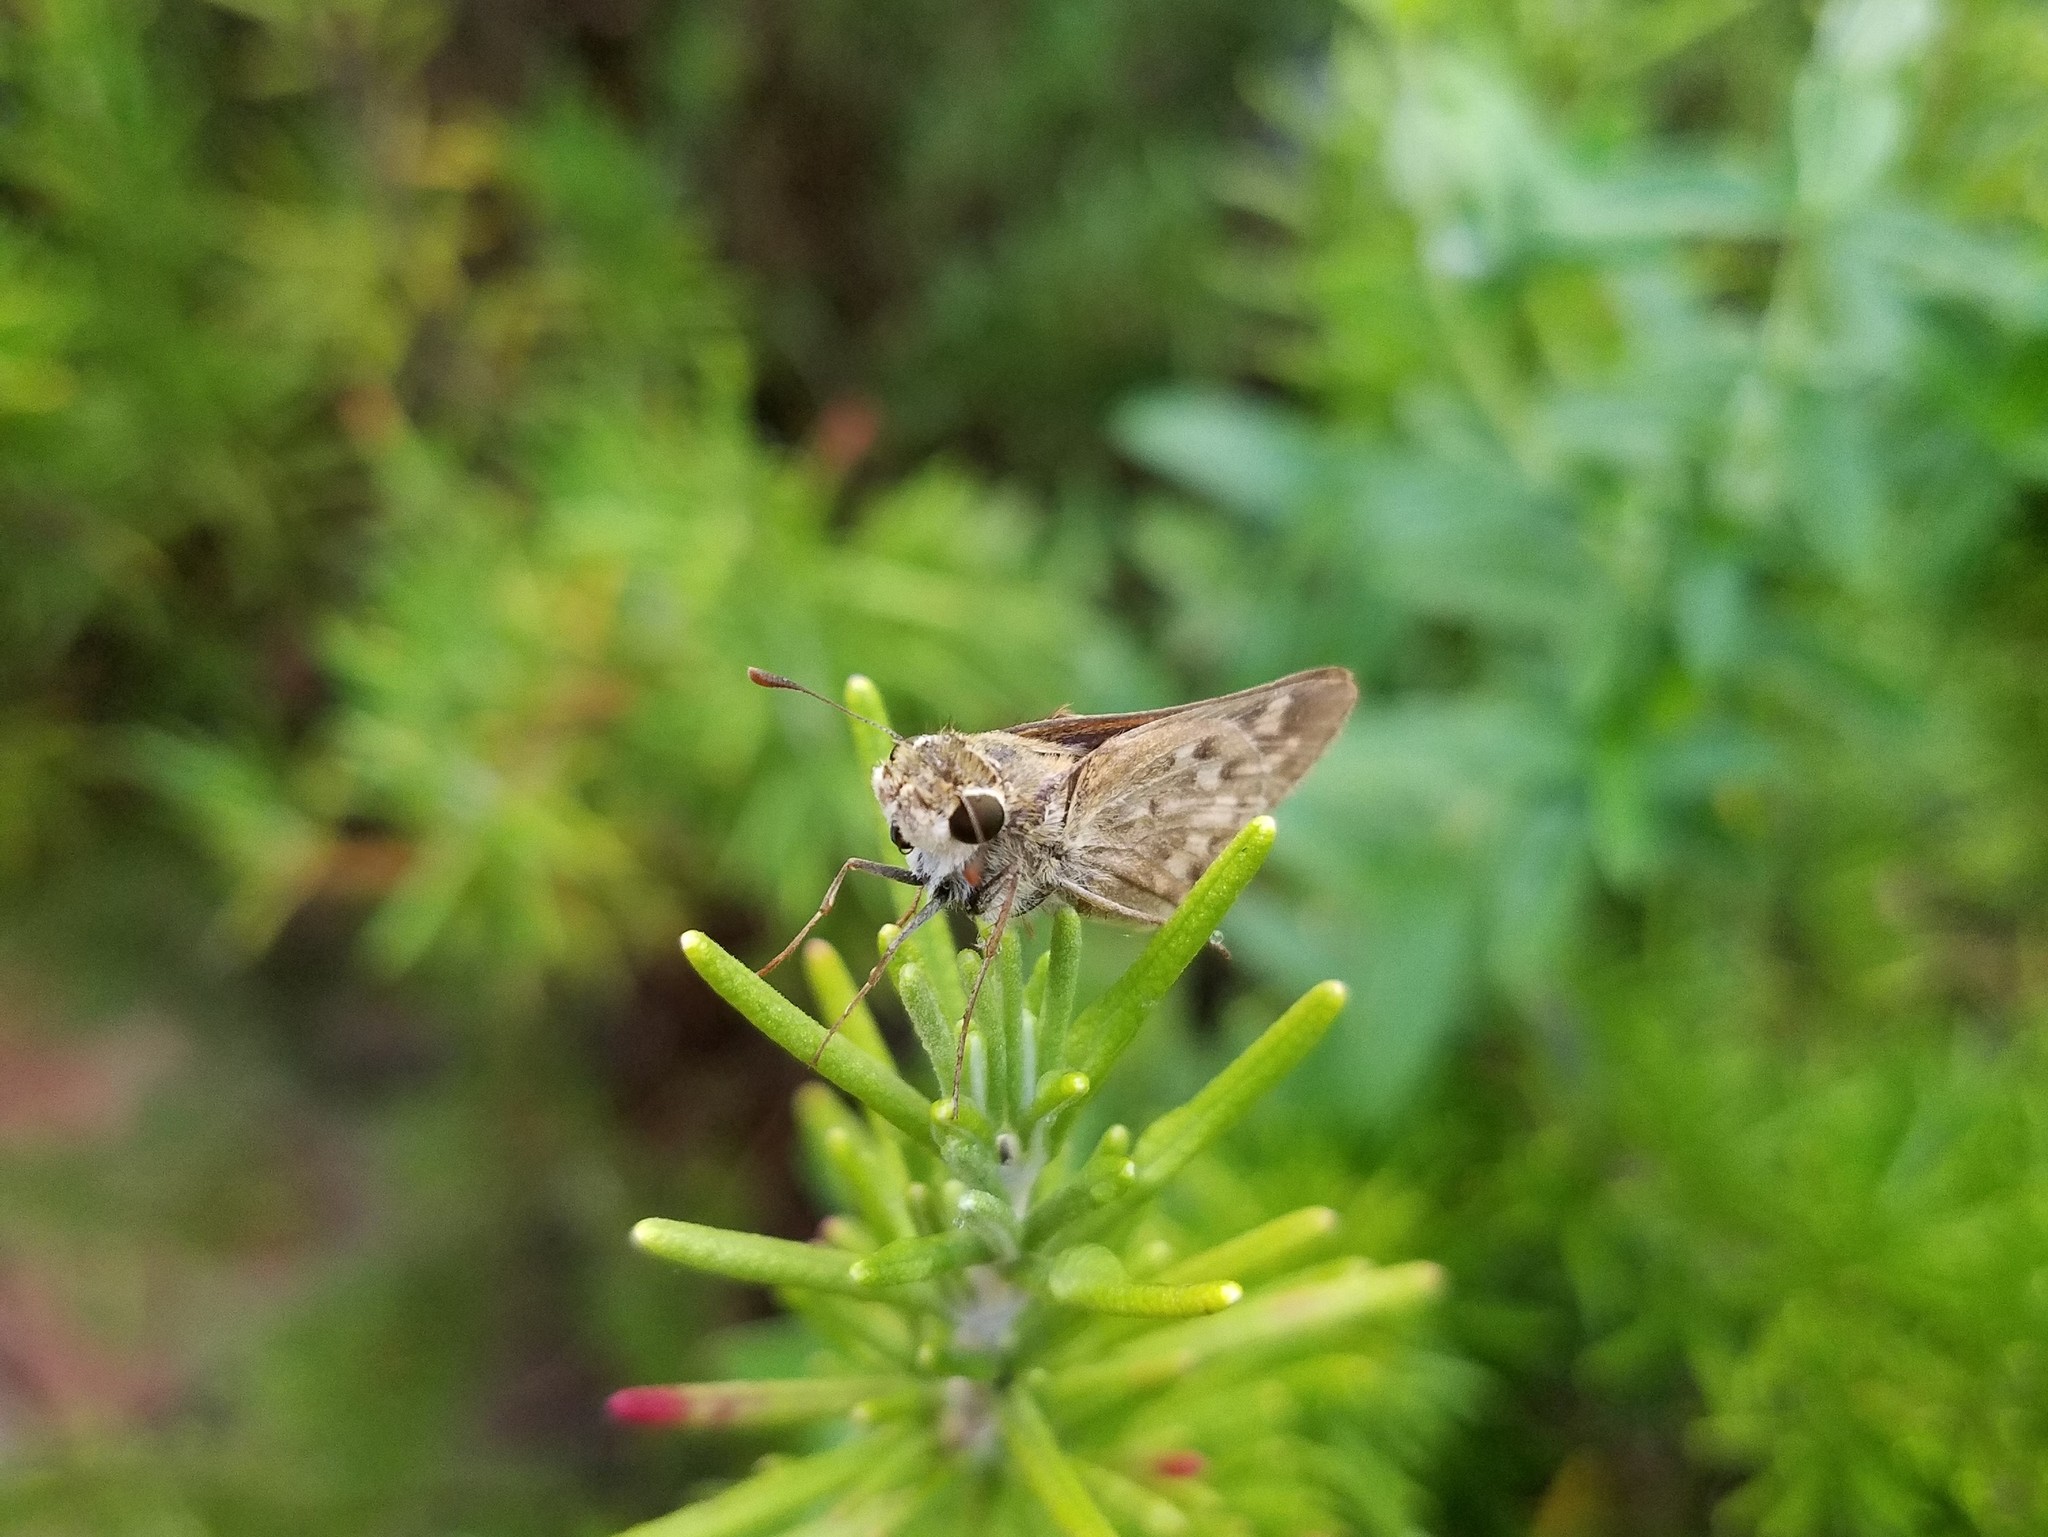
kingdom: Animalia
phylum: Arthropoda
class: Insecta
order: Lepidoptera
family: Hesperiidae
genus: Hylephila
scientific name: Hylephila phyleus
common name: Fiery skipper
